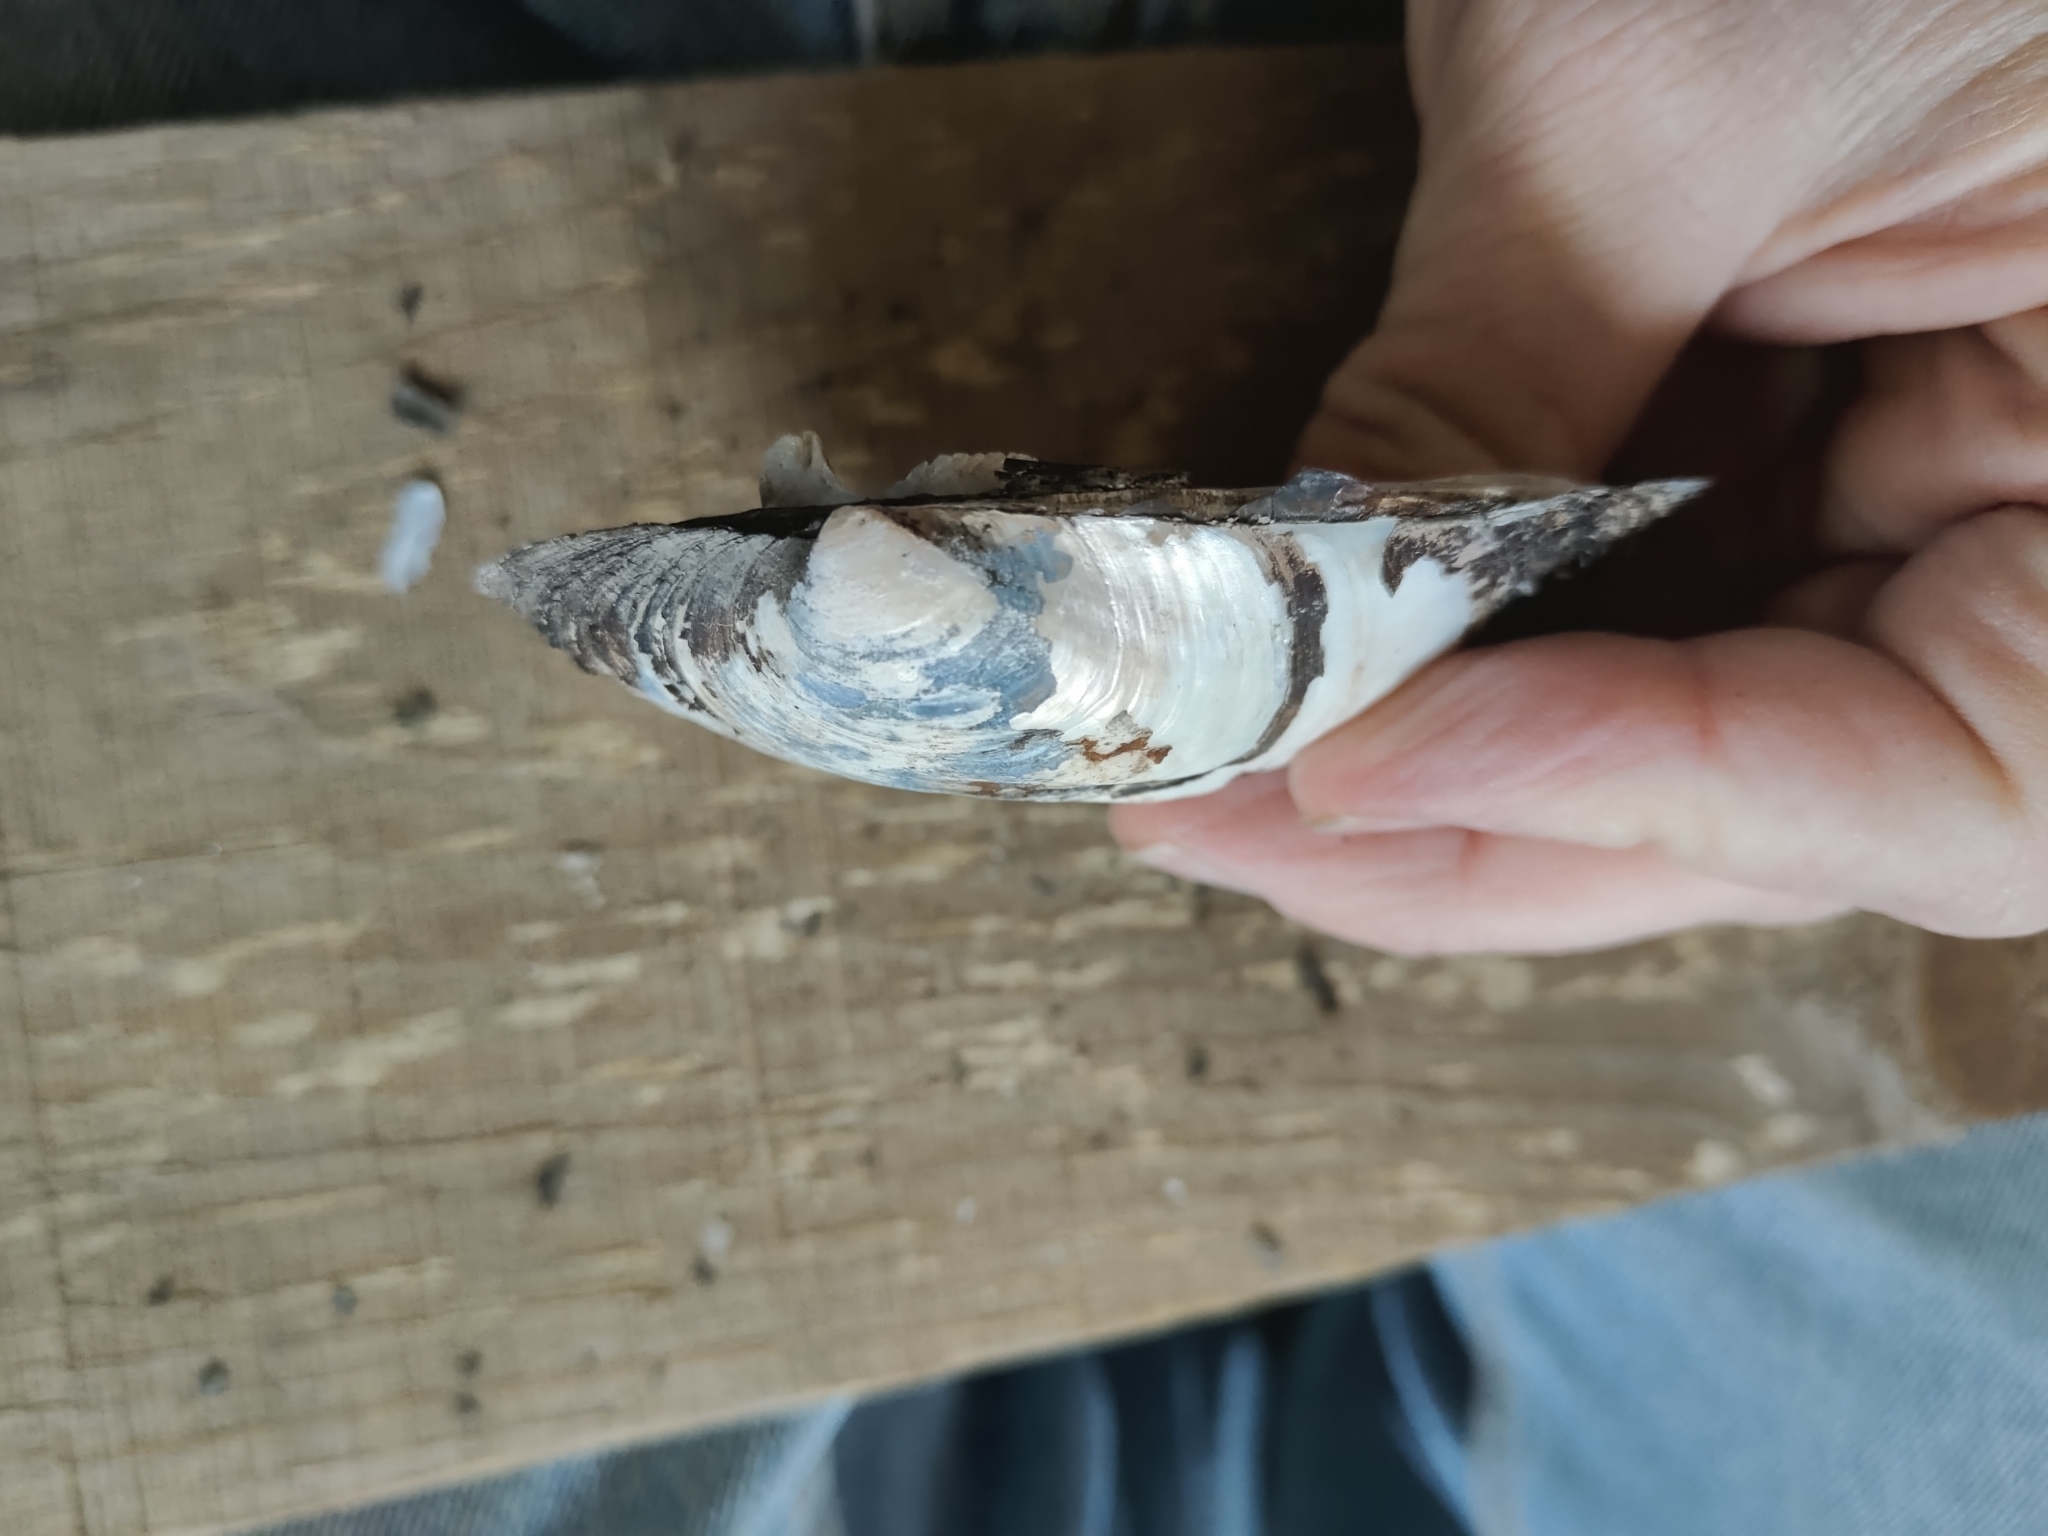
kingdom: Animalia
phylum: Mollusca
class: Bivalvia
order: Unionida
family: Unionidae
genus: Amblema
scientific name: Amblema plicata
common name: Threeridge
